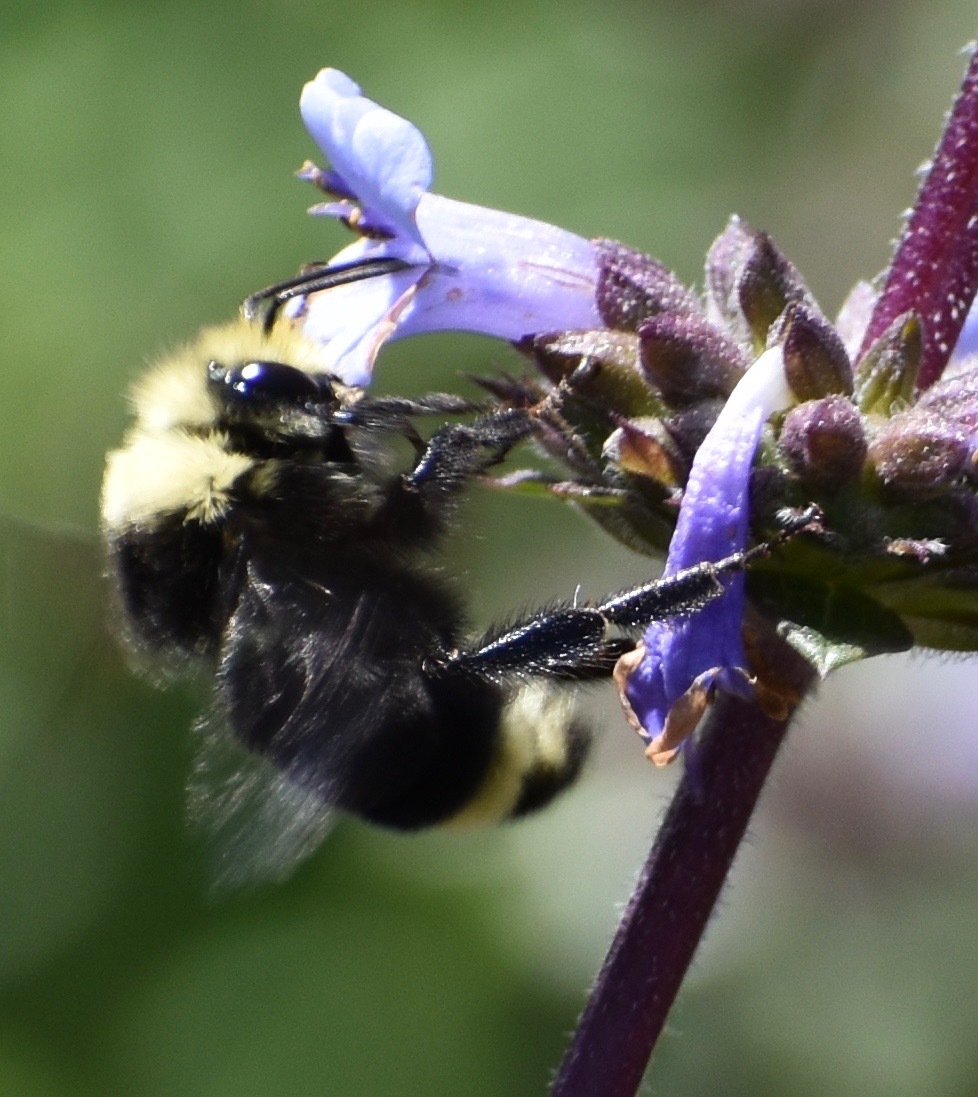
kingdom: Animalia
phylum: Arthropoda
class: Insecta
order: Hymenoptera
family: Apidae
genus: Bombus
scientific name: Bombus vosnesenskii
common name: Vosnesensky bumble bee
